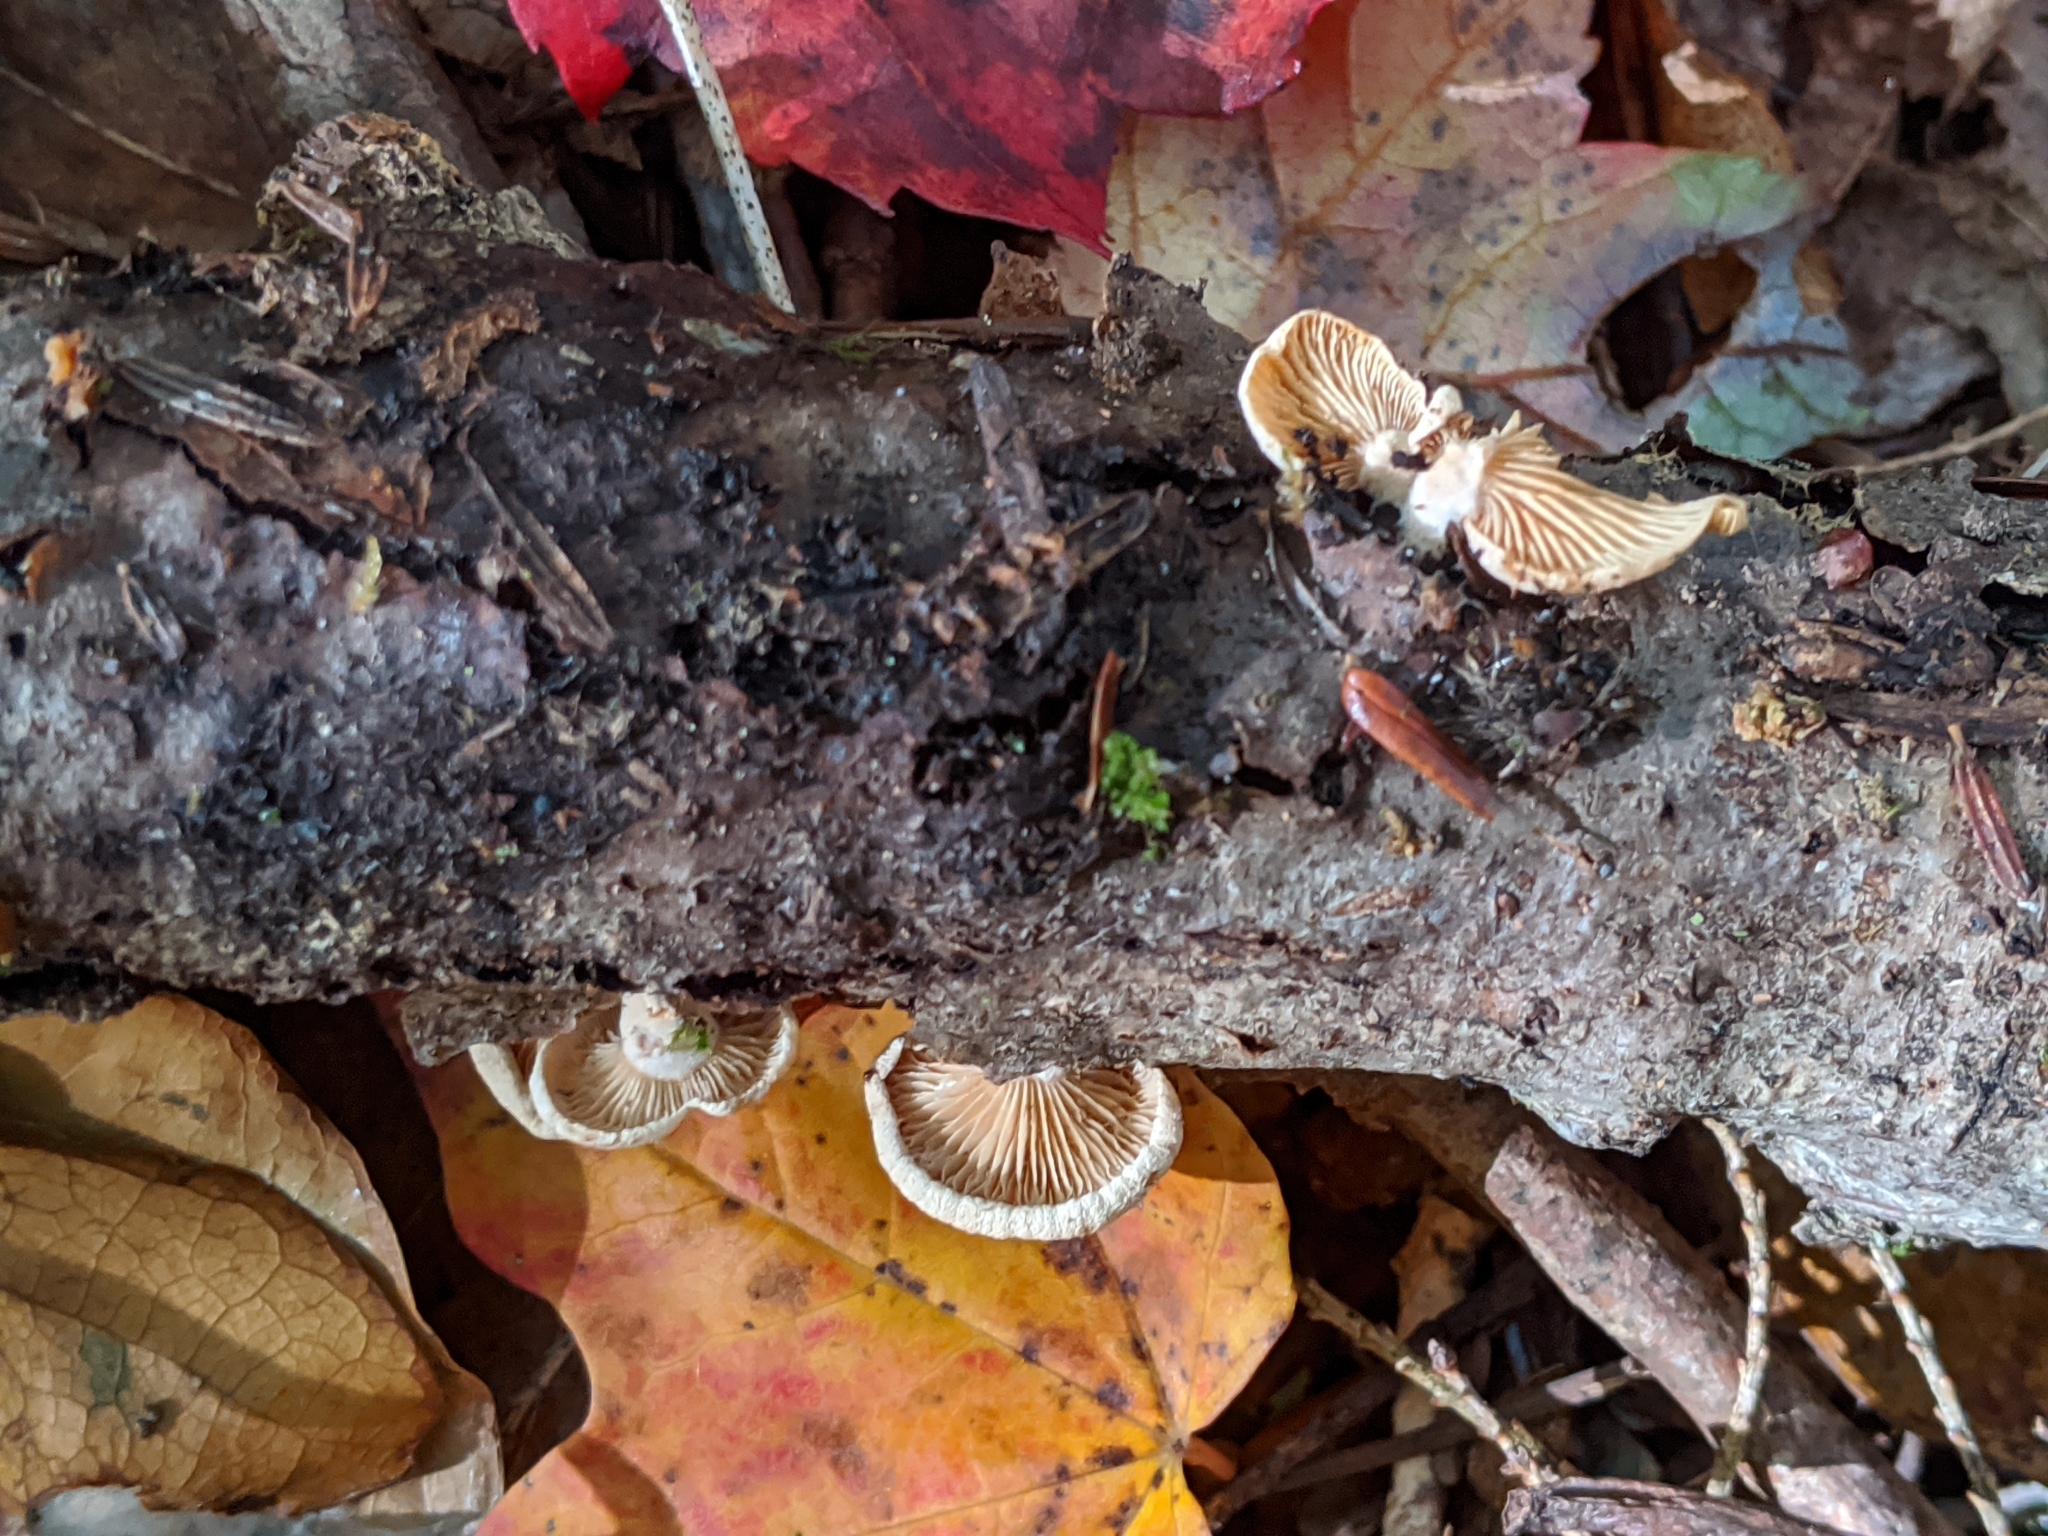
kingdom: Fungi
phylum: Basidiomycota
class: Agaricomycetes
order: Agaricales
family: Mycenaceae
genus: Panellus
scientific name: Panellus stipticus
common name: Bitter oysterling
